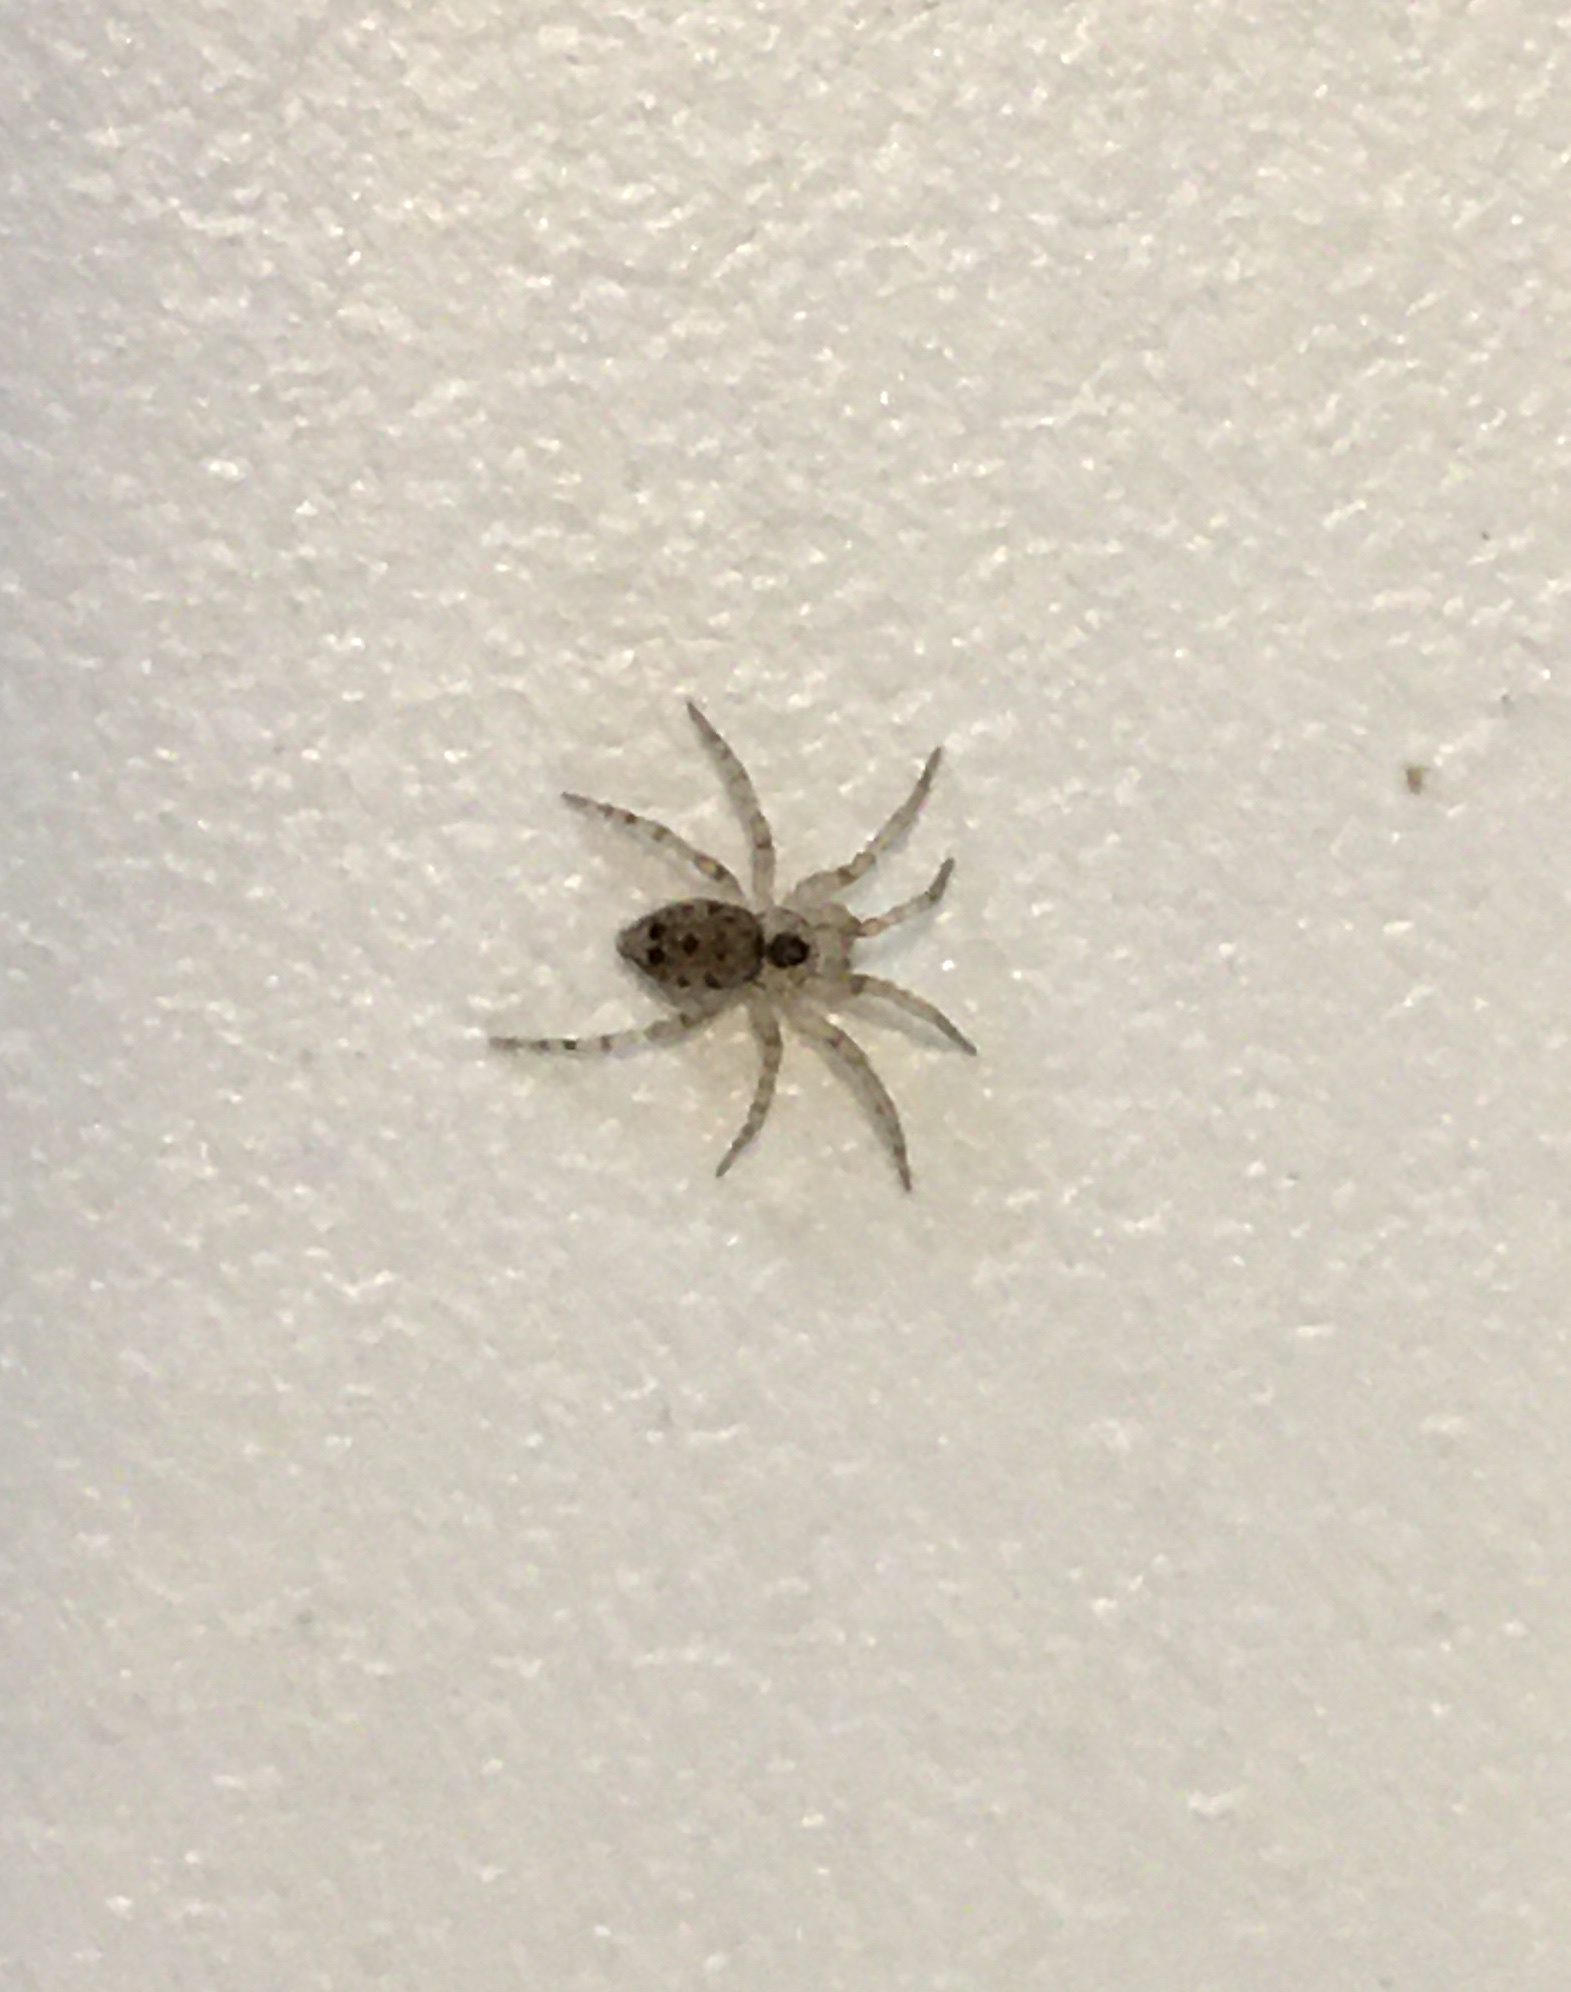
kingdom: Animalia
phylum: Arthropoda
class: Arachnida
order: Araneae
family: Oecobiidae
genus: Oecobius
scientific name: Oecobius navus
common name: Flatmesh weaver
